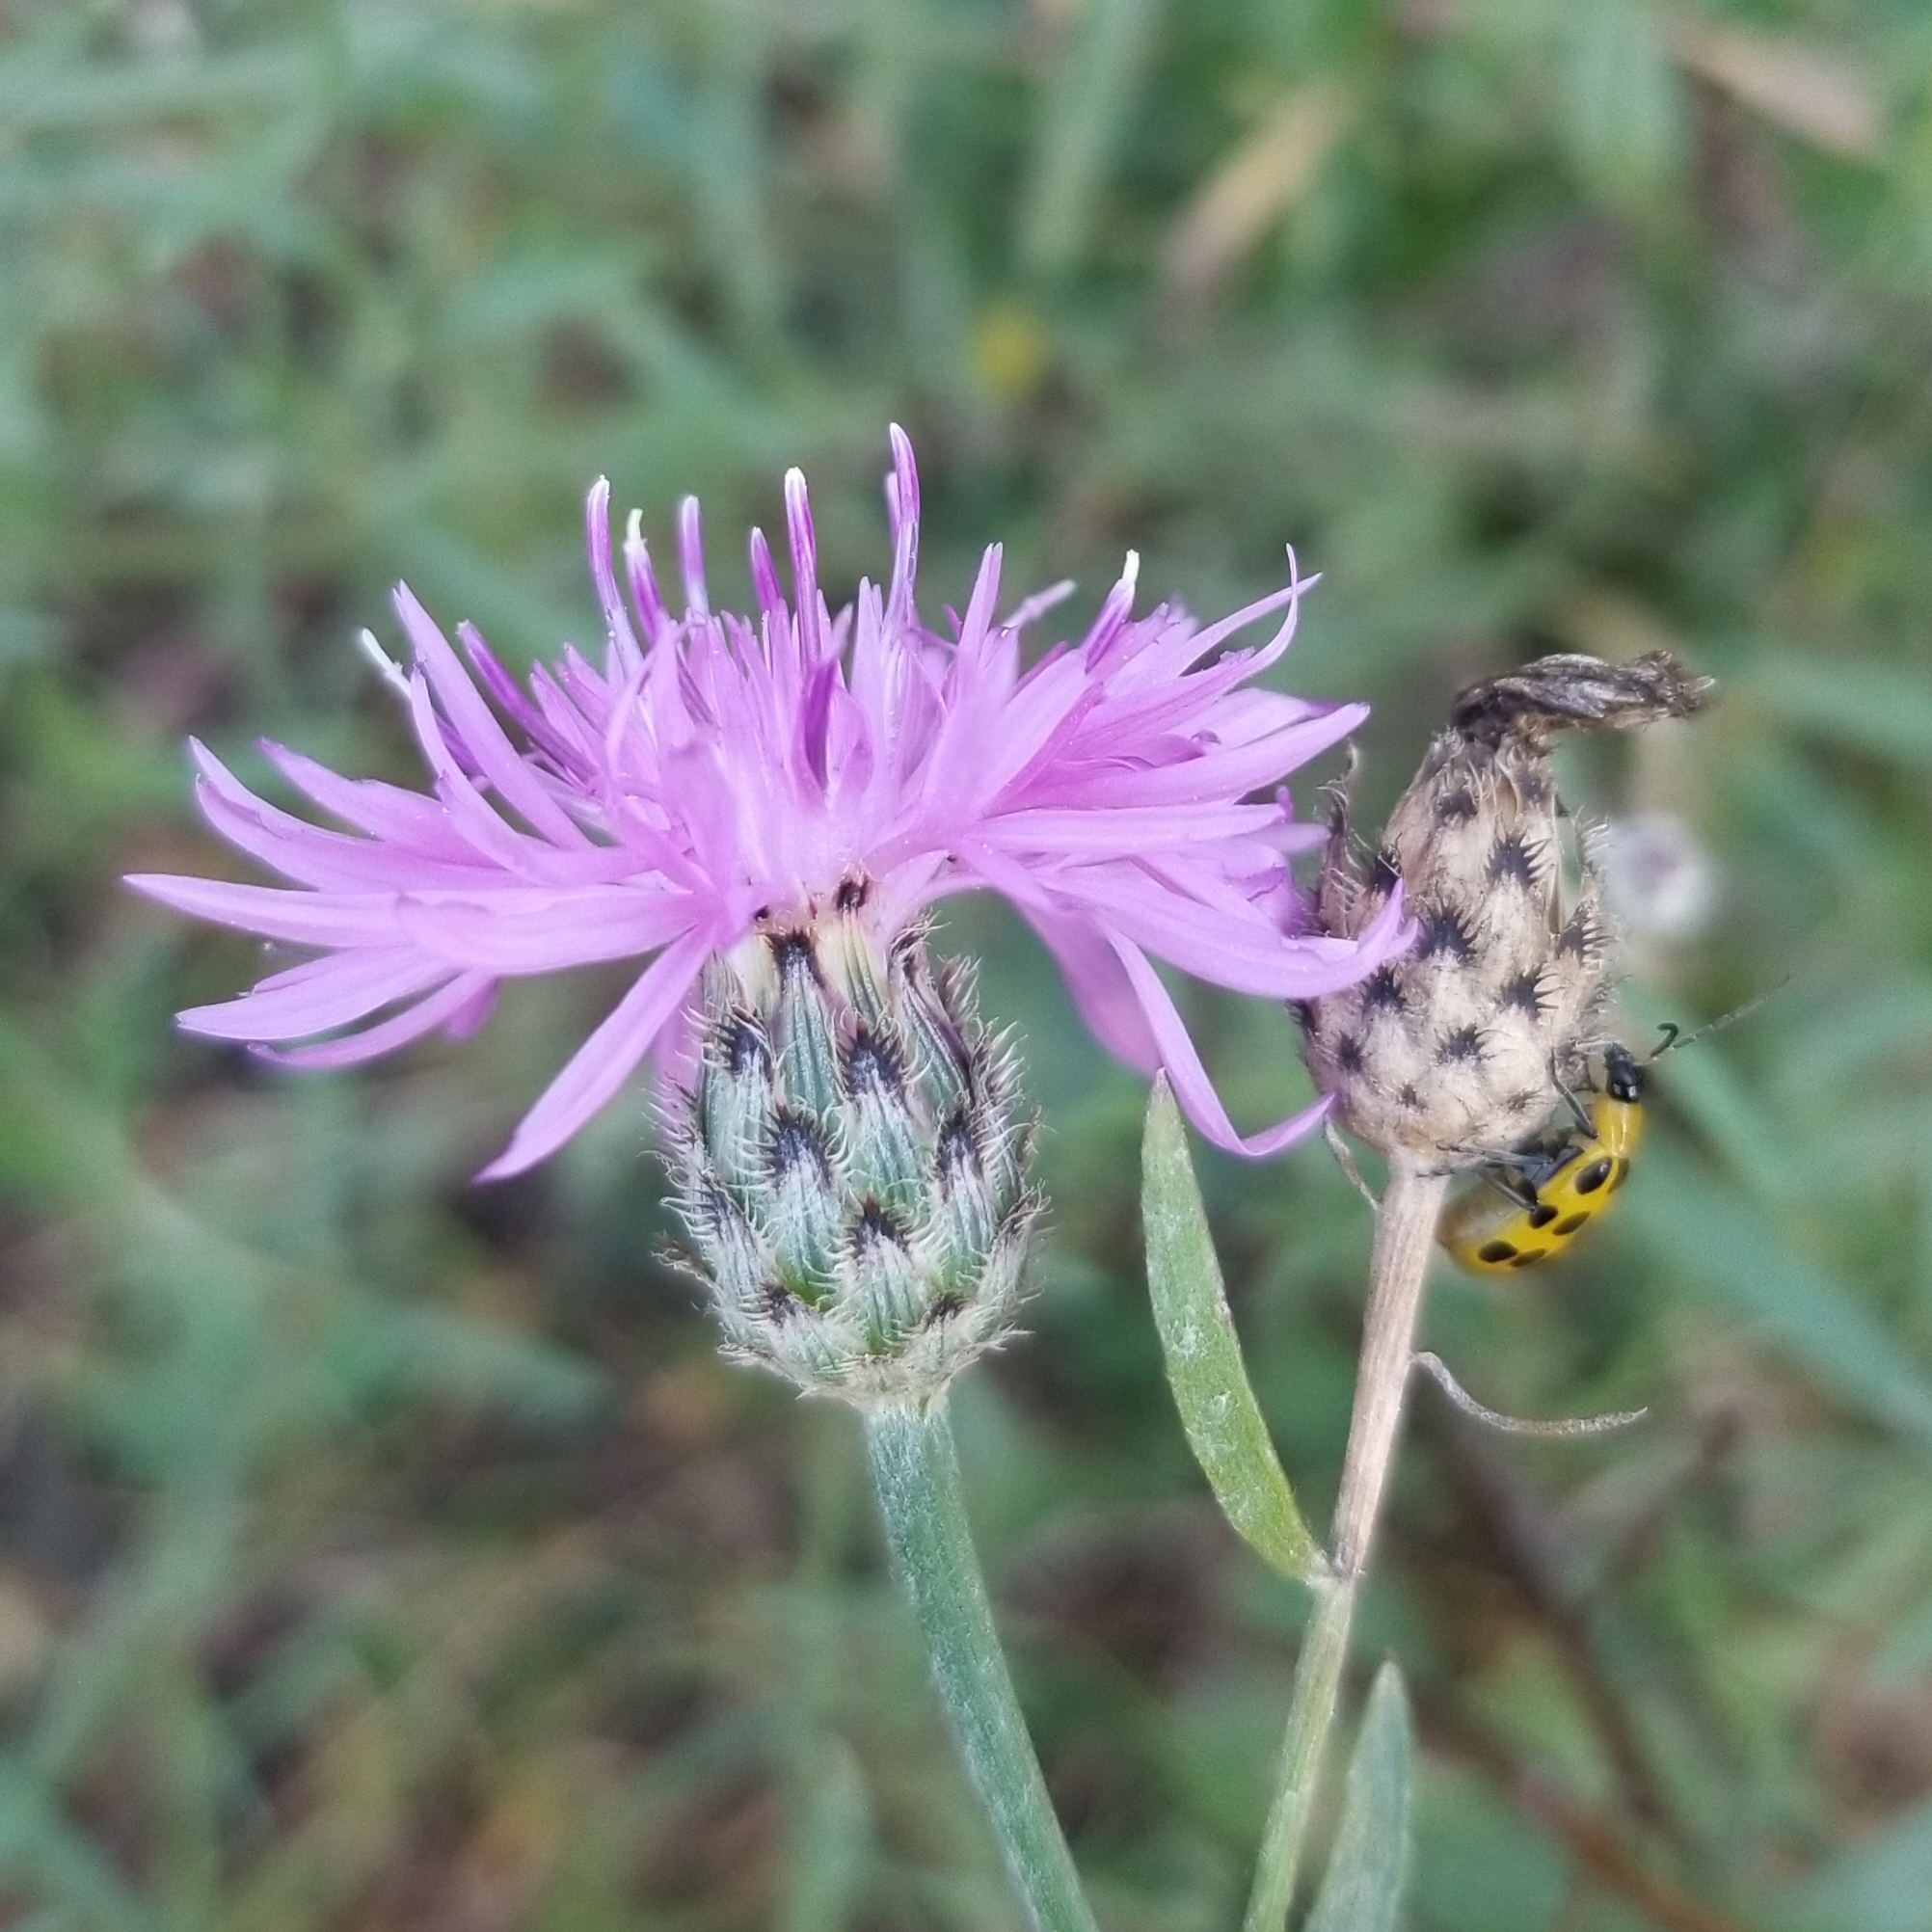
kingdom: Plantae
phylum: Tracheophyta
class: Magnoliopsida
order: Asterales
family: Asteraceae
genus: Centaurea
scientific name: Centaurea stoebe
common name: Spotted knapweed
